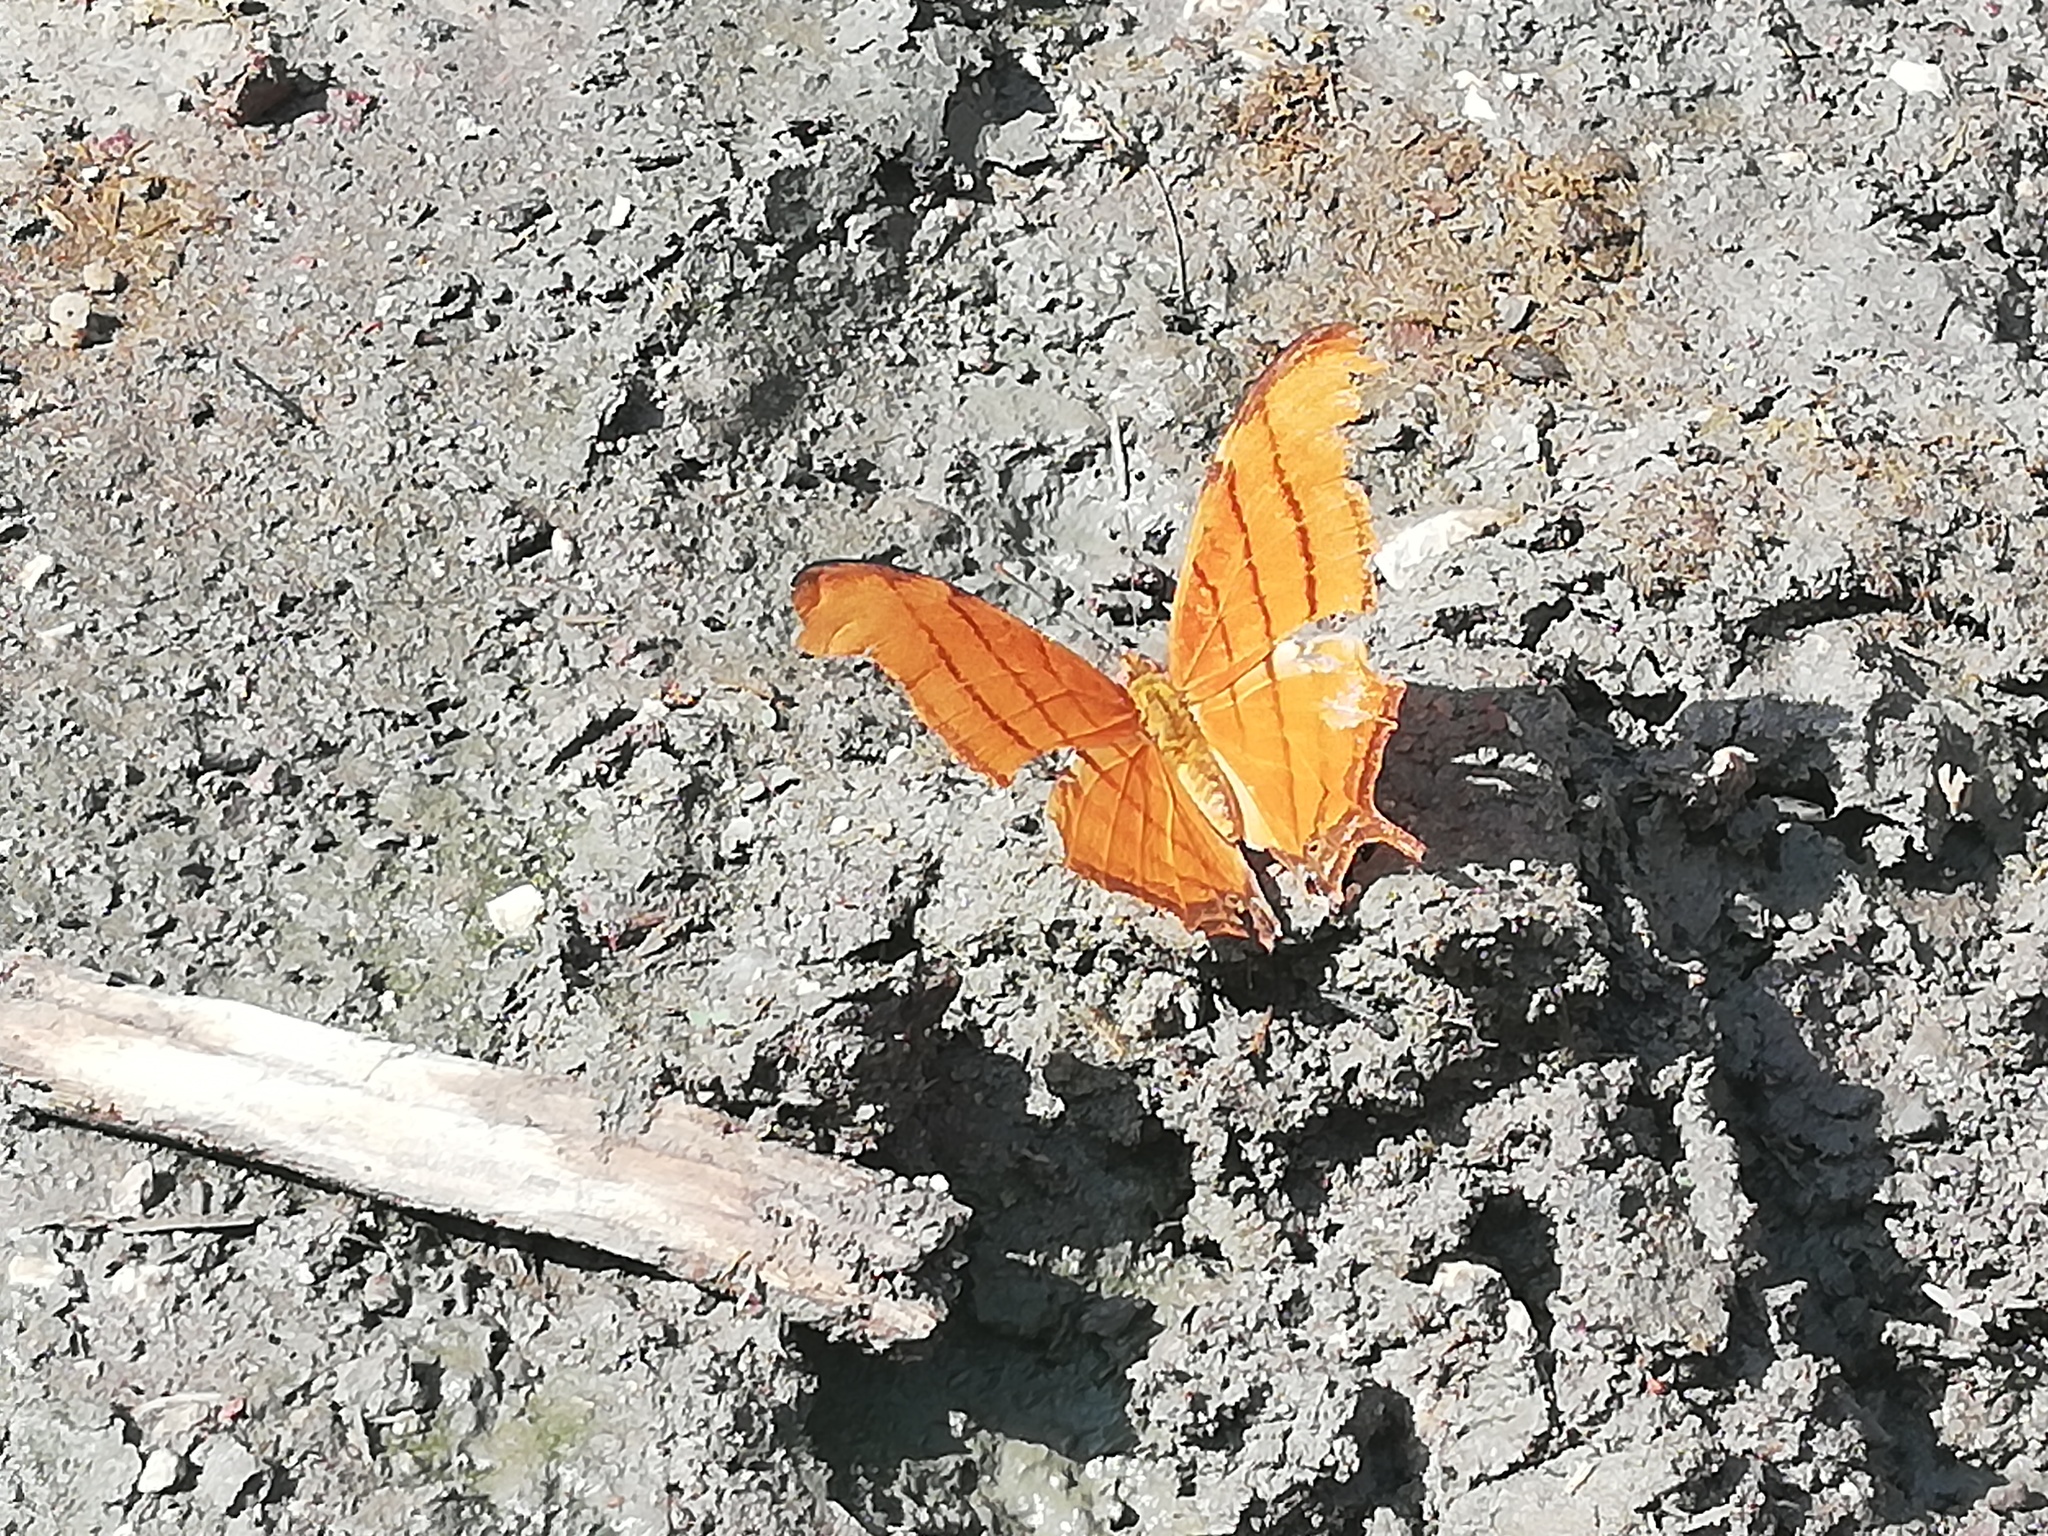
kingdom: Animalia
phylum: Arthropoda
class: Insecta
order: Lepidoptera
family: Nymphalidae
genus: Marpesia
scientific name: Marpesia petreus
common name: Red dagger wing
